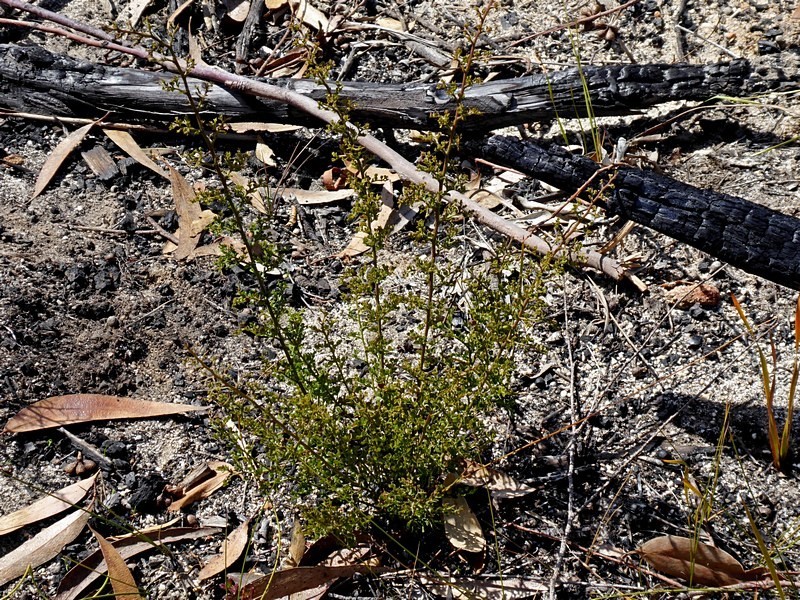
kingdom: Plantae
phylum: Tracheophyta
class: Magnoliopsida
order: Fabales
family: Fabaceae
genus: Bossiaea
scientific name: Bossiaea obcordata
